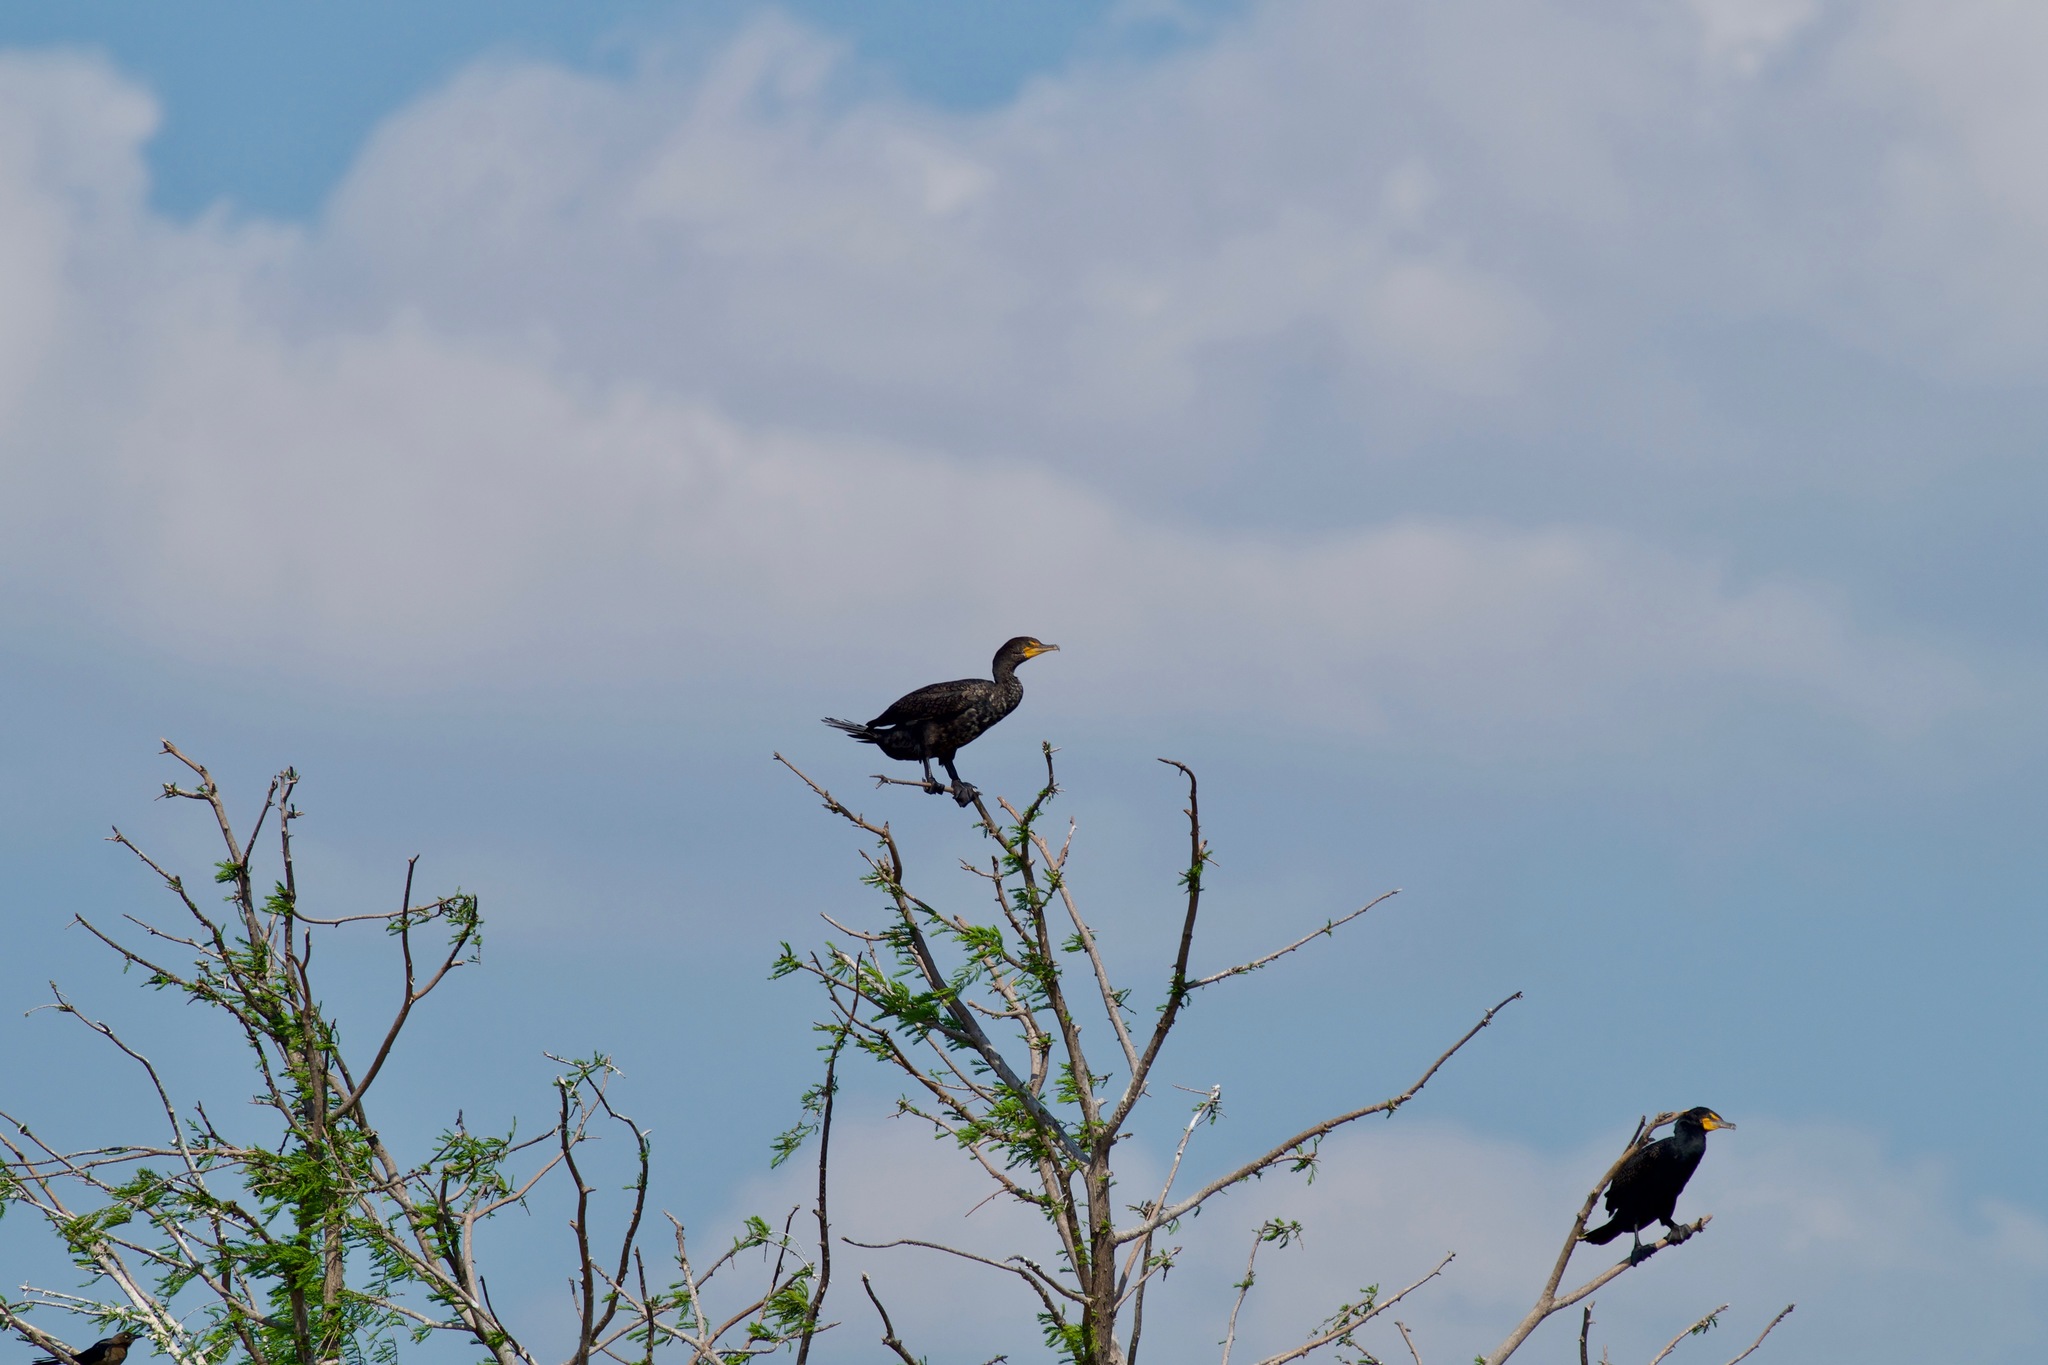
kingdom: Animalia
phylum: Chordata
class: Aves
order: Suliformes
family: Phalacrocoracidae
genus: Phalacrocorax
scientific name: Phalacrocorax auritus
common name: Double-crested cormorant
